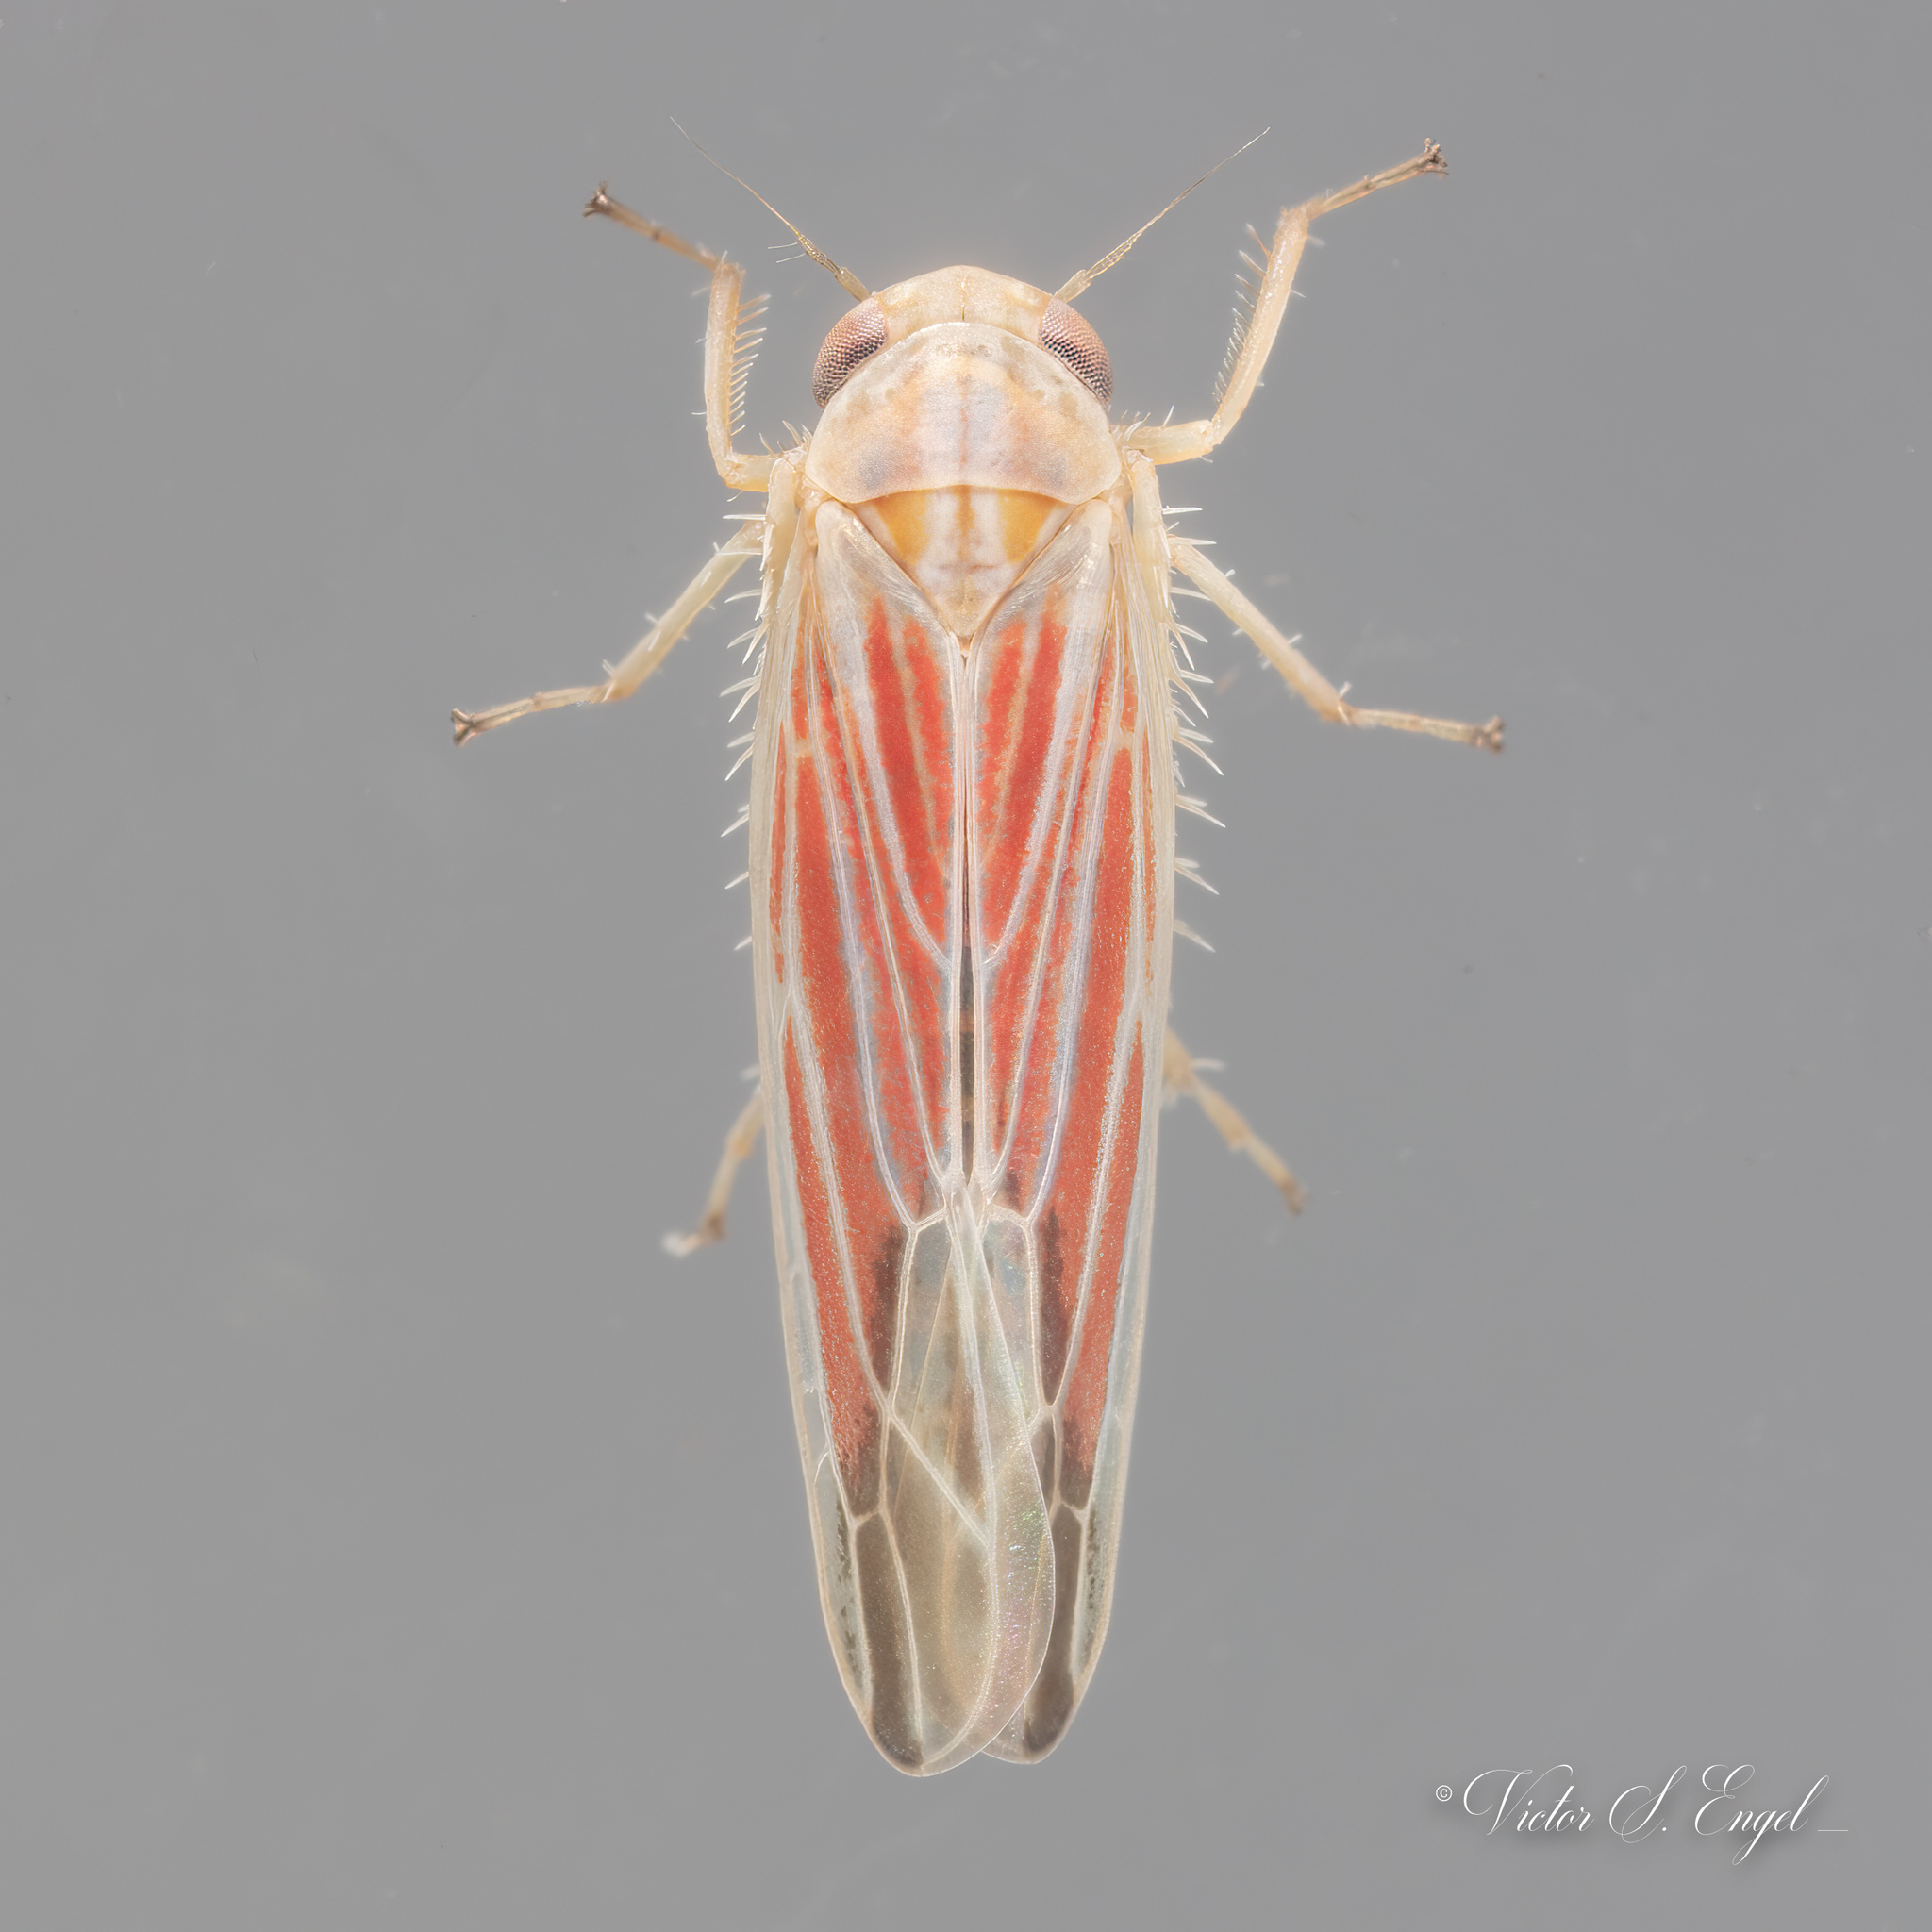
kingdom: Animalia
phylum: Arthropoda
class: Insecta
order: Hemiptera
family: Cicadellidae
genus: Balclutha
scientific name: Balclutha rubrostriata
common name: Red-streaked leafhopper
